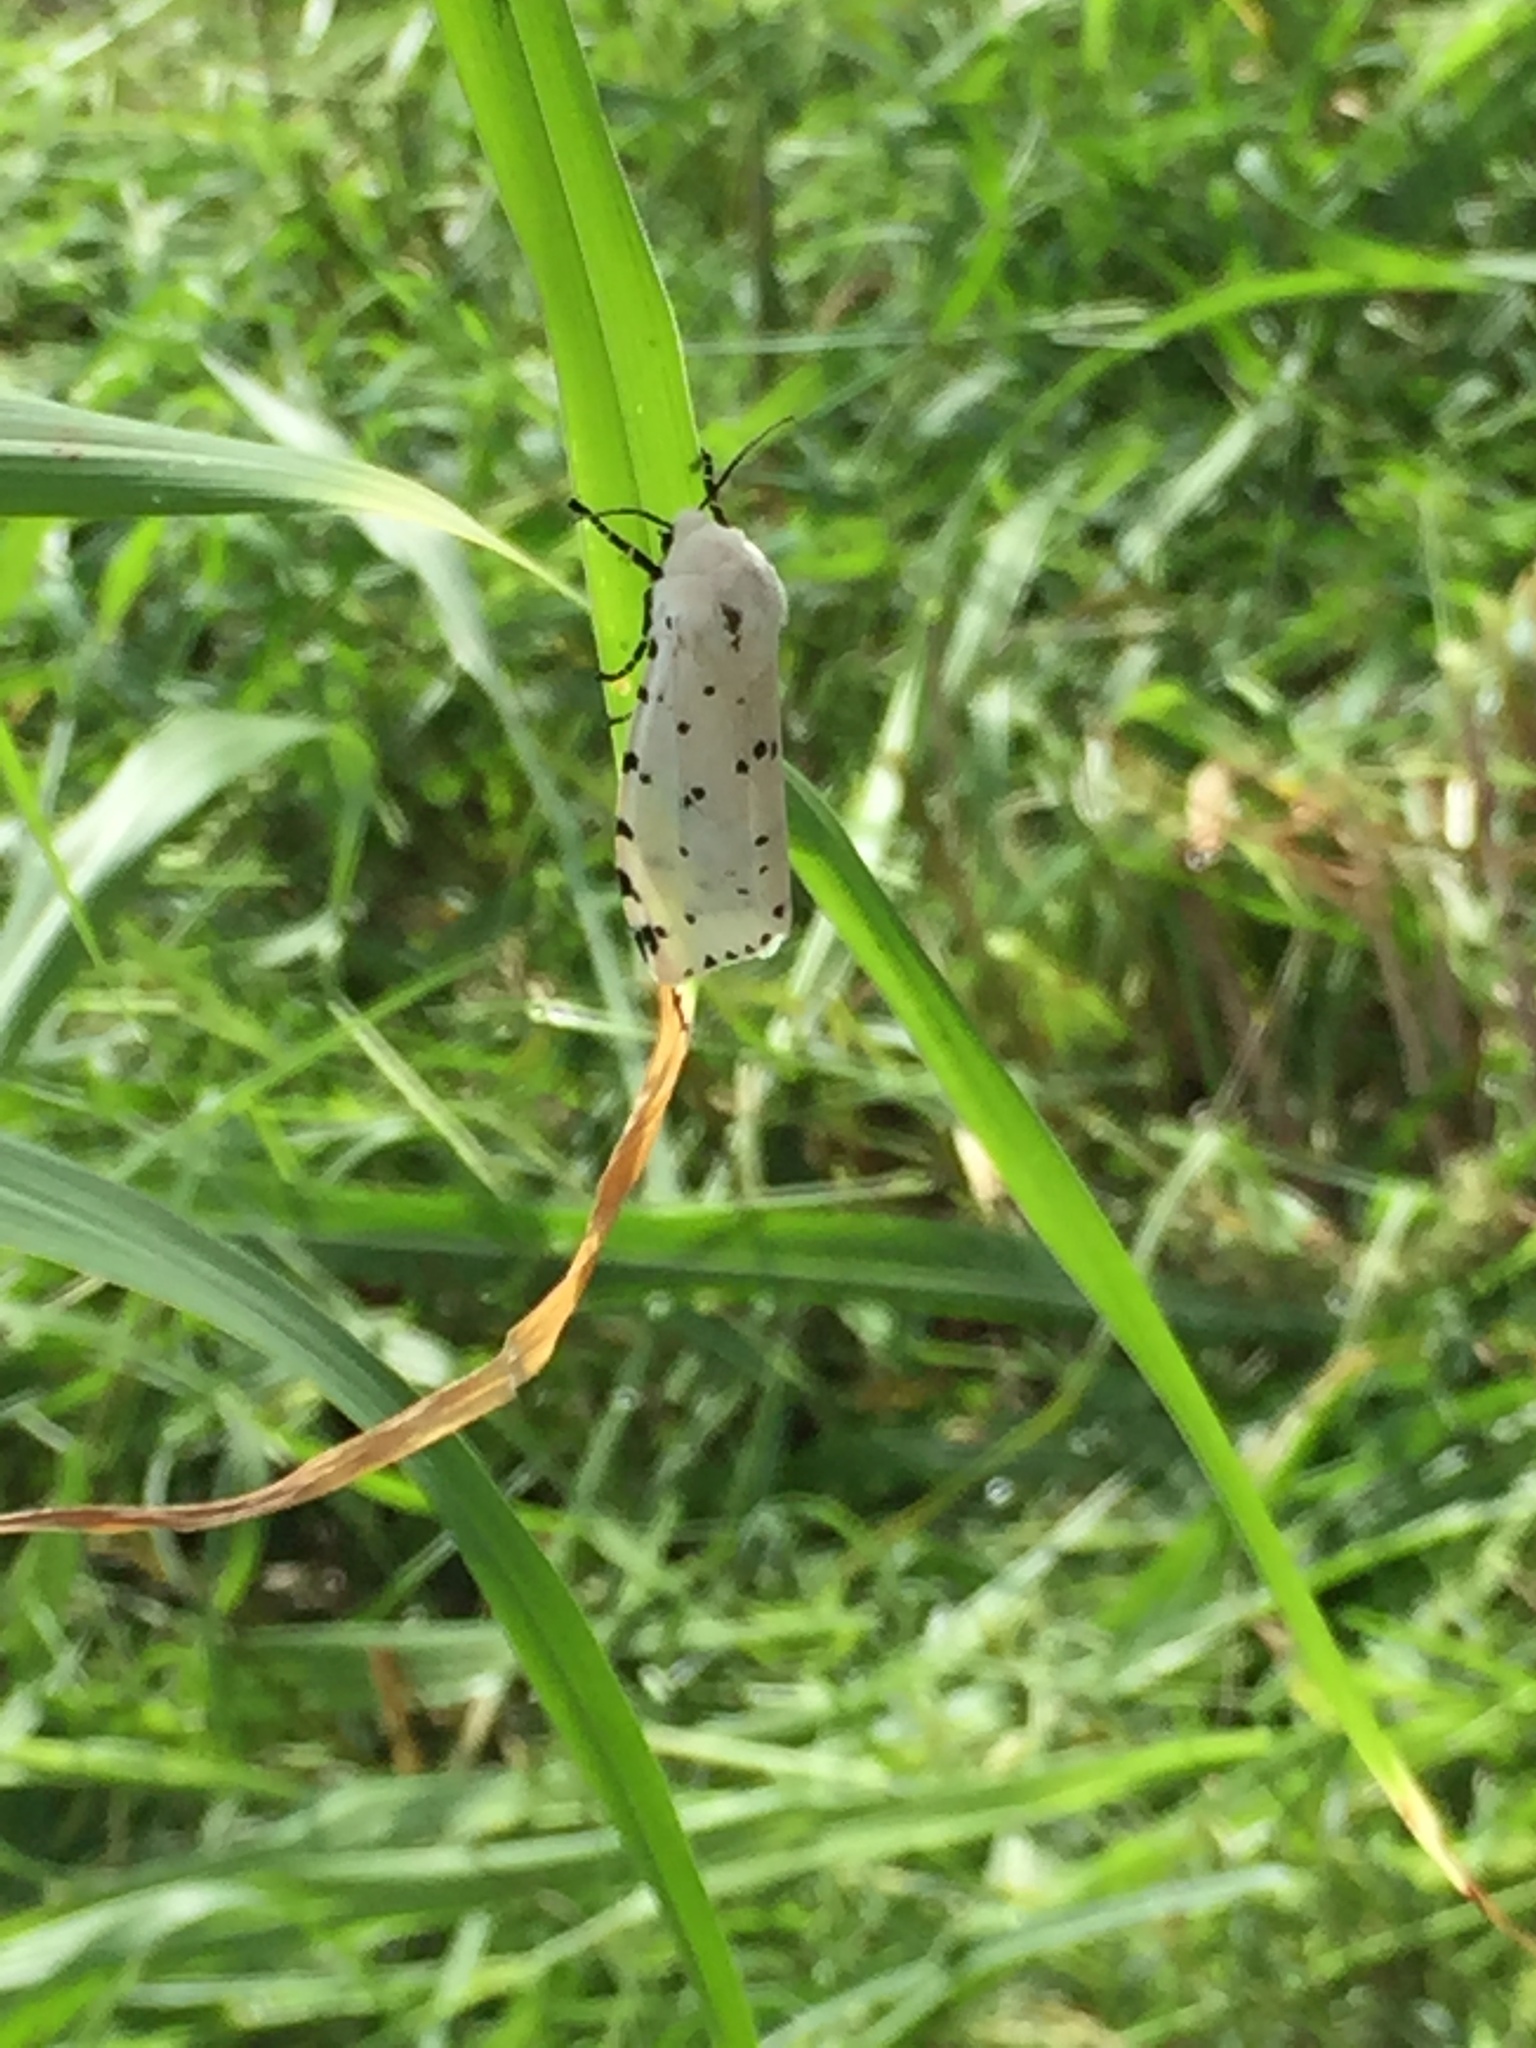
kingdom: Animalia
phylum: Arthropoda
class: Insecta
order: Lepidoptera
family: Erebidae
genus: Estigmene
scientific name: Estigmene acrea
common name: Salt marsh moth
